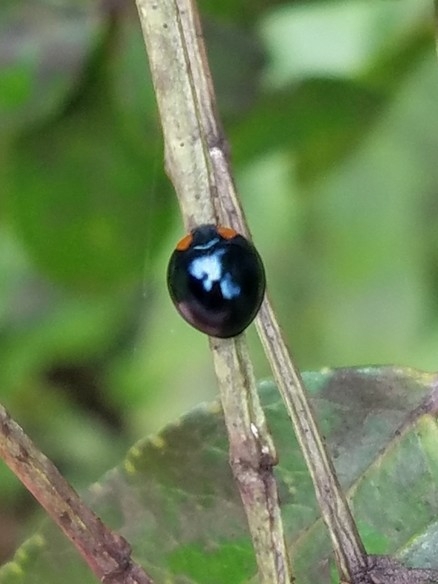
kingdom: Animalia
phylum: Arthropoda
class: Insecta
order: Coleoptera
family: Coccinellidae
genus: Curinus
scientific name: Curinus coeruleus
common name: Ladybird beetle
